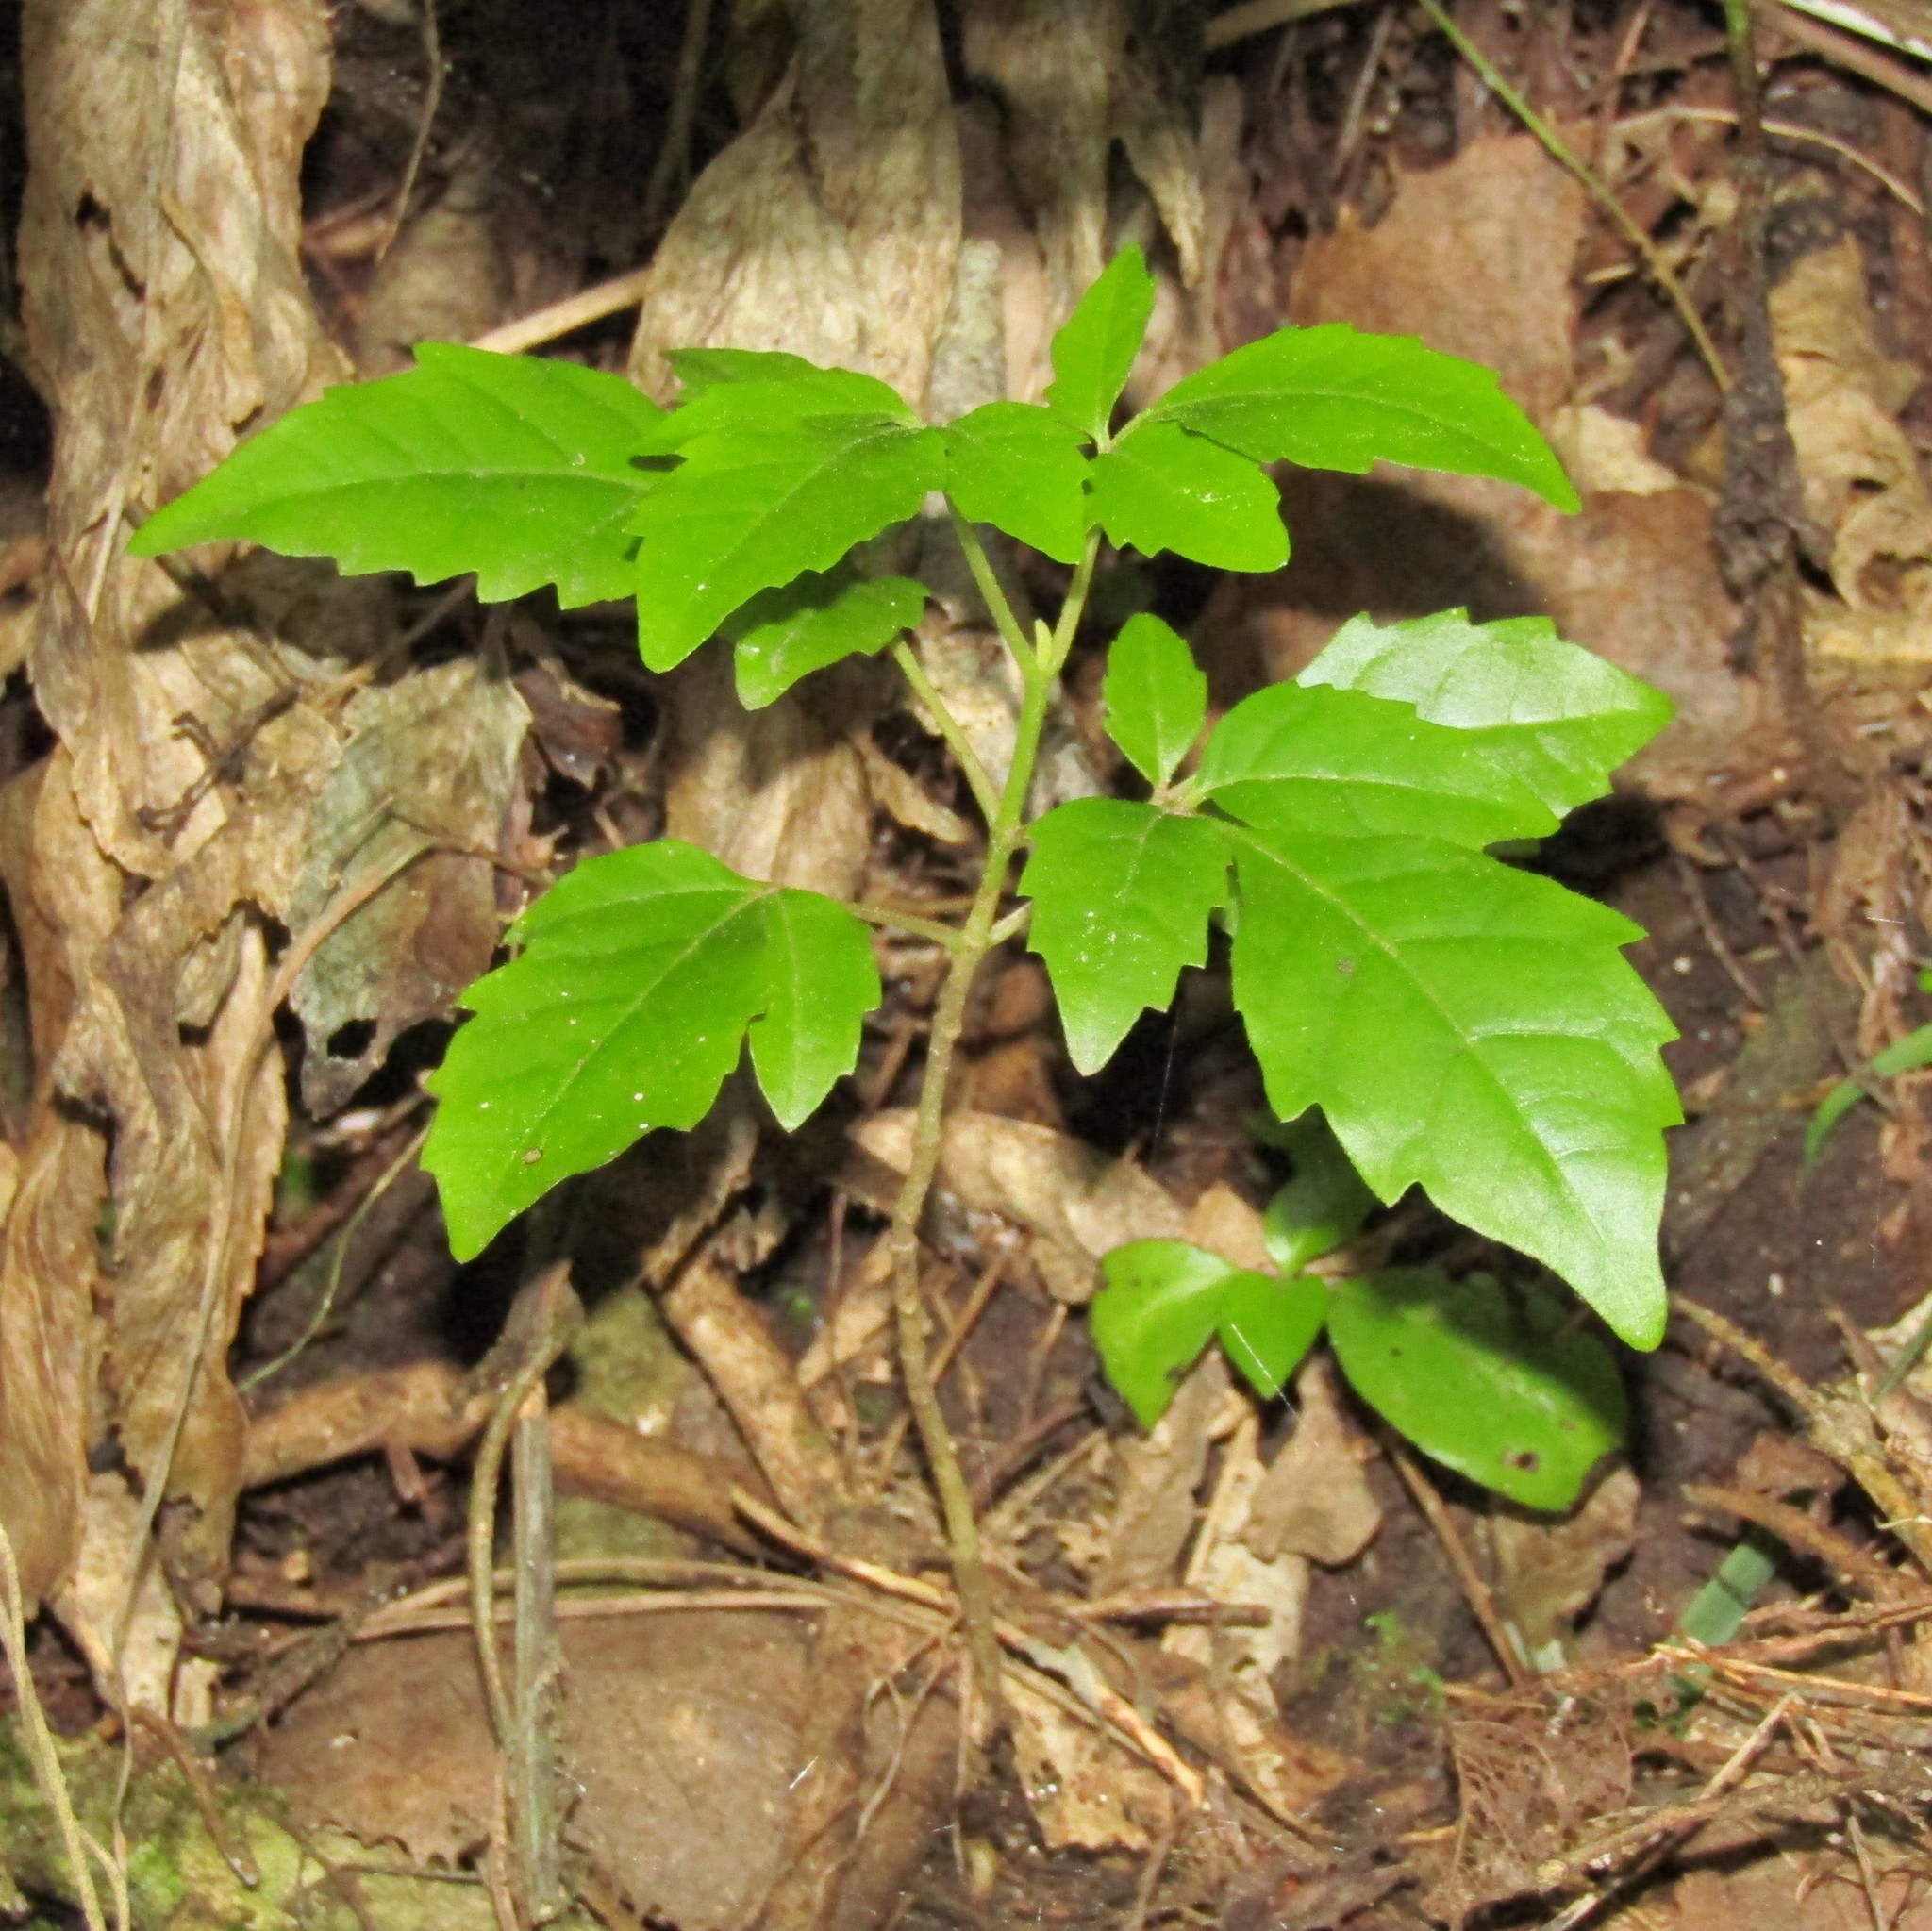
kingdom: Plantae
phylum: Tracheophyta
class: Magnoliopsida
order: Lamiales
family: Lamiaceae
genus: Vitex
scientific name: Vitex lucens
